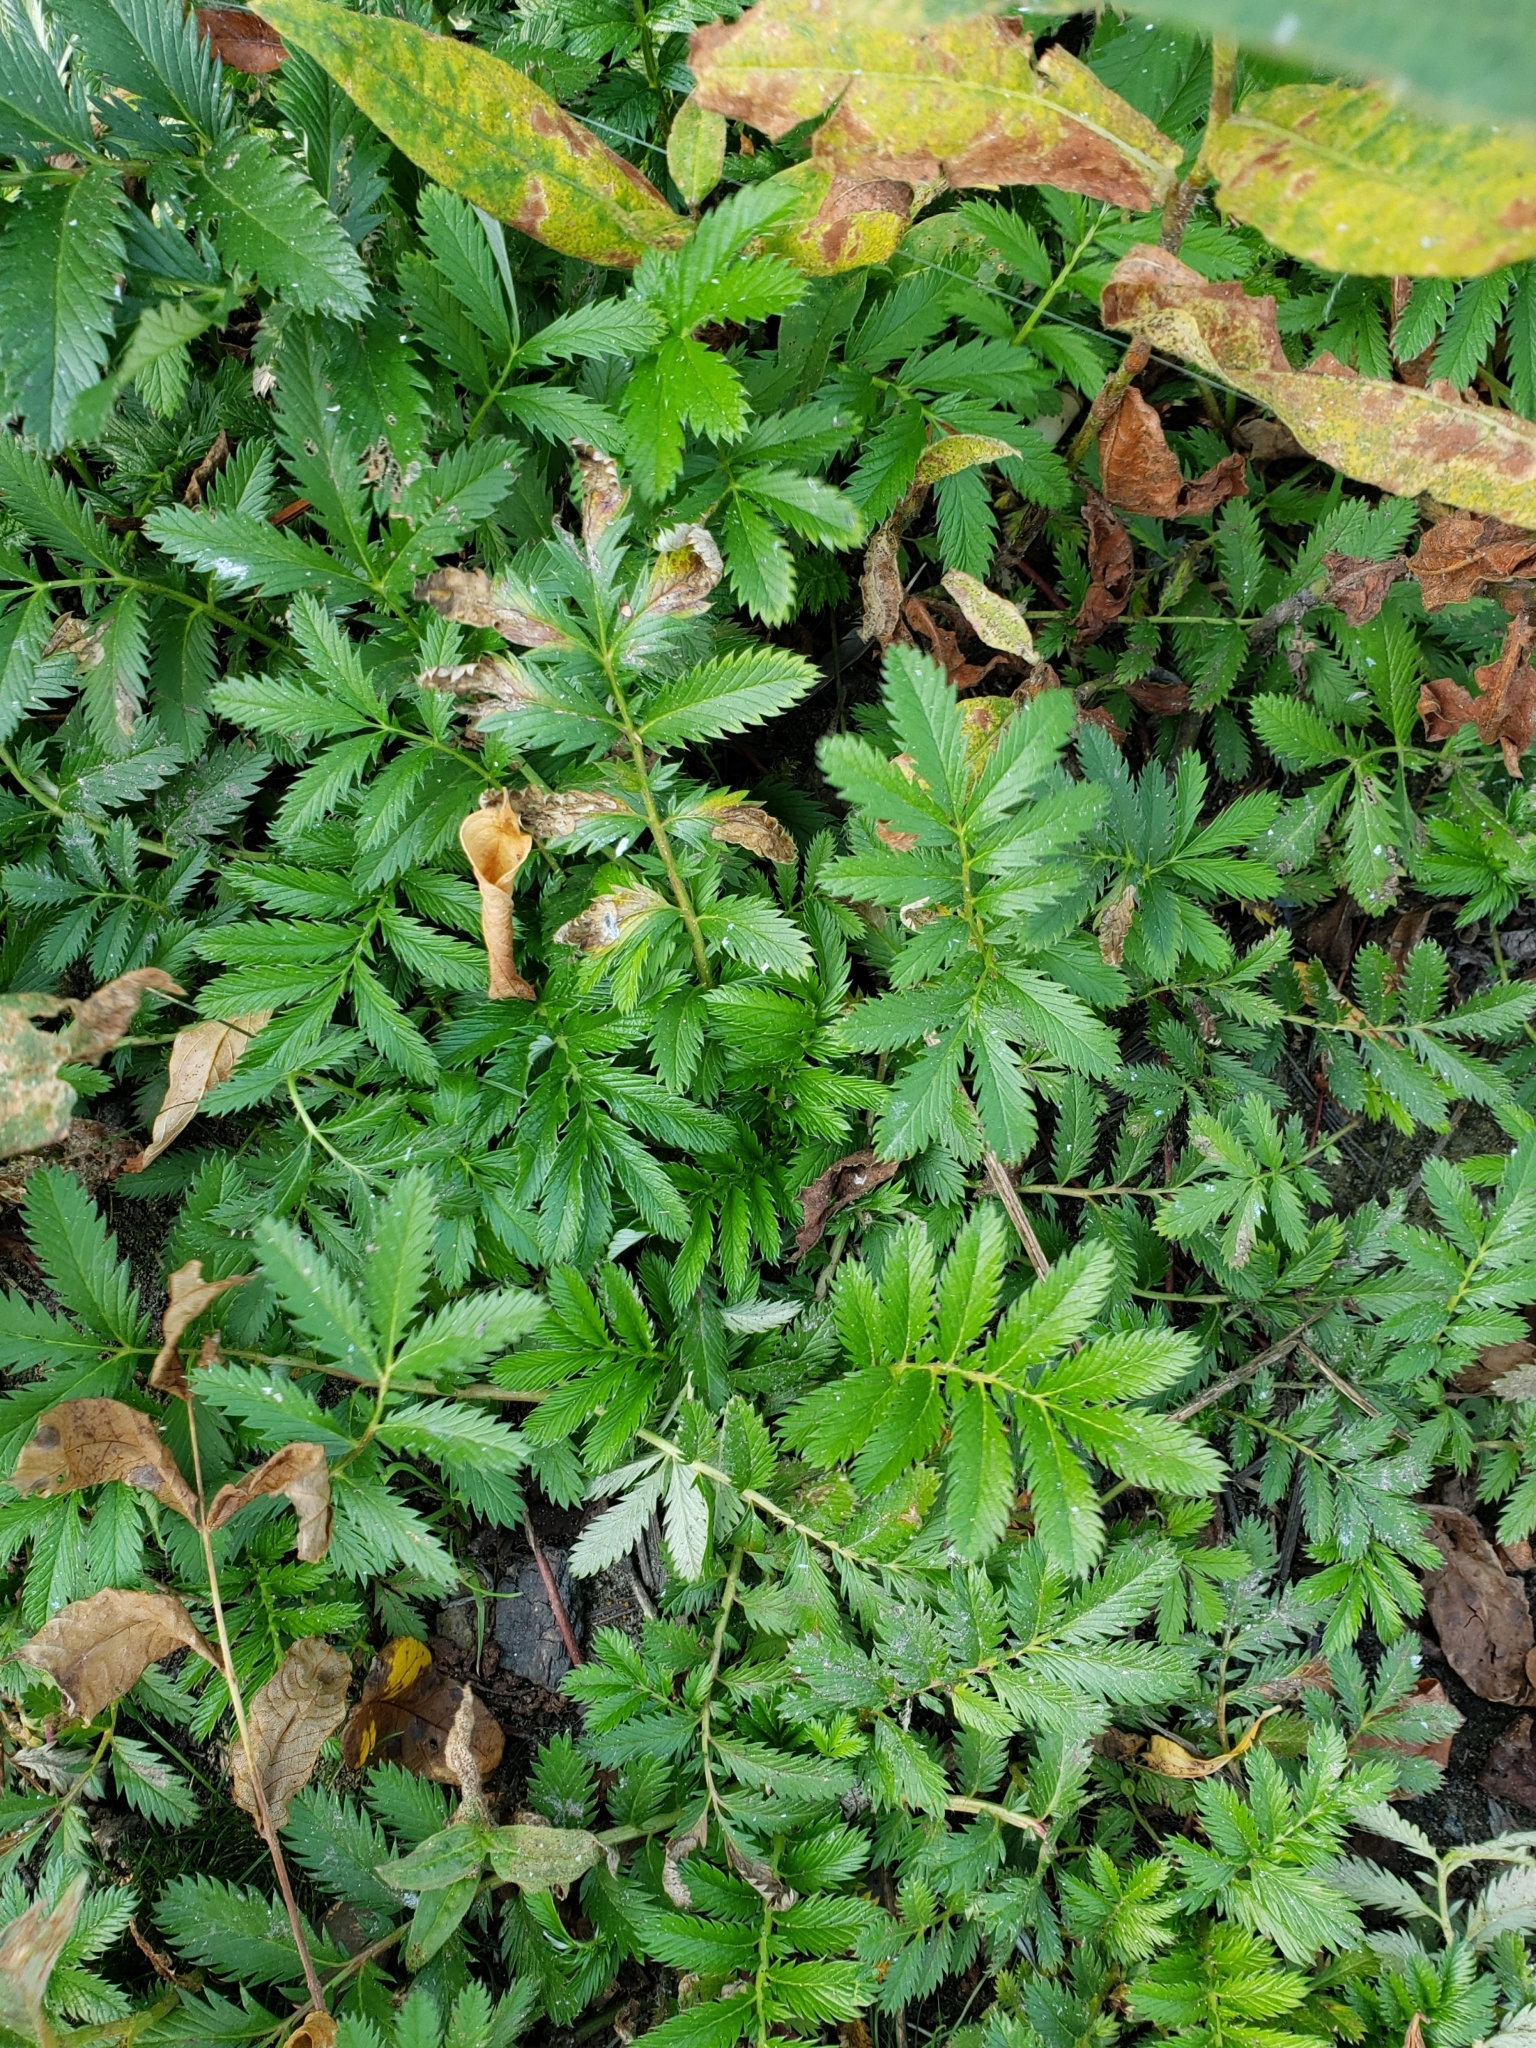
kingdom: Plantae
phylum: Tracheophyta
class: Magnoliopsida
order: Rosales
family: Rosaceae
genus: Argentina
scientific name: Argentina anserina
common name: Common silverweed
